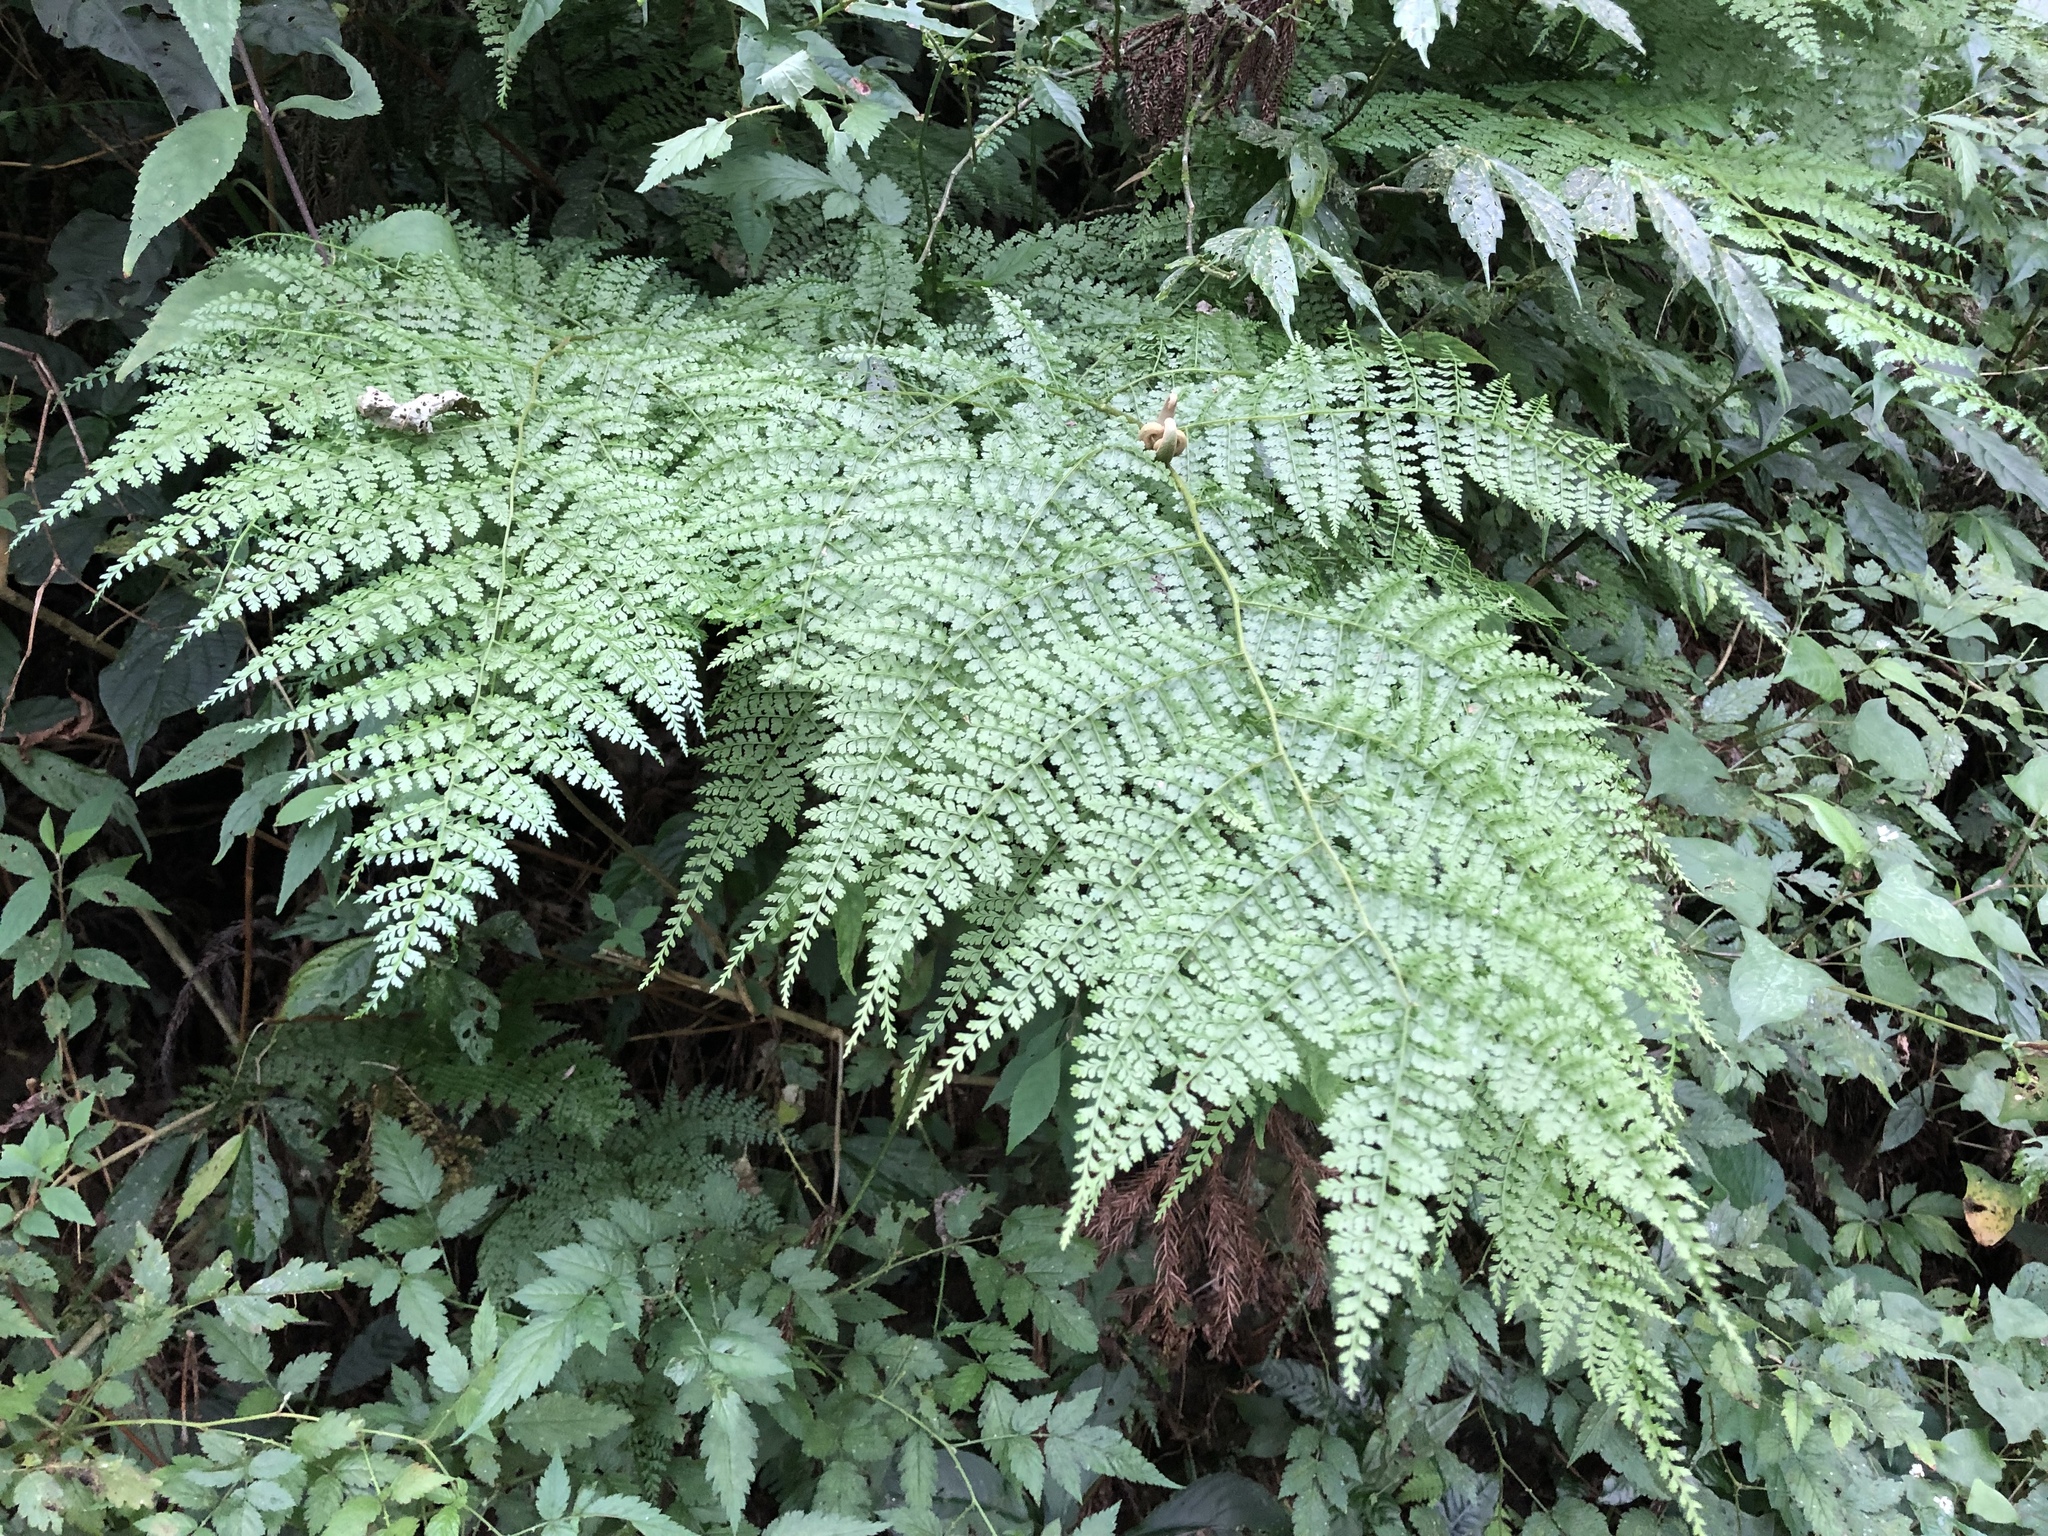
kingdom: Plantae
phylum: Tracheophyta
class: Polypodiopsida
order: Polypodiales
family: Dennstaedtiaceae
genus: Monachosorum
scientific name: Monachosorum henryi
